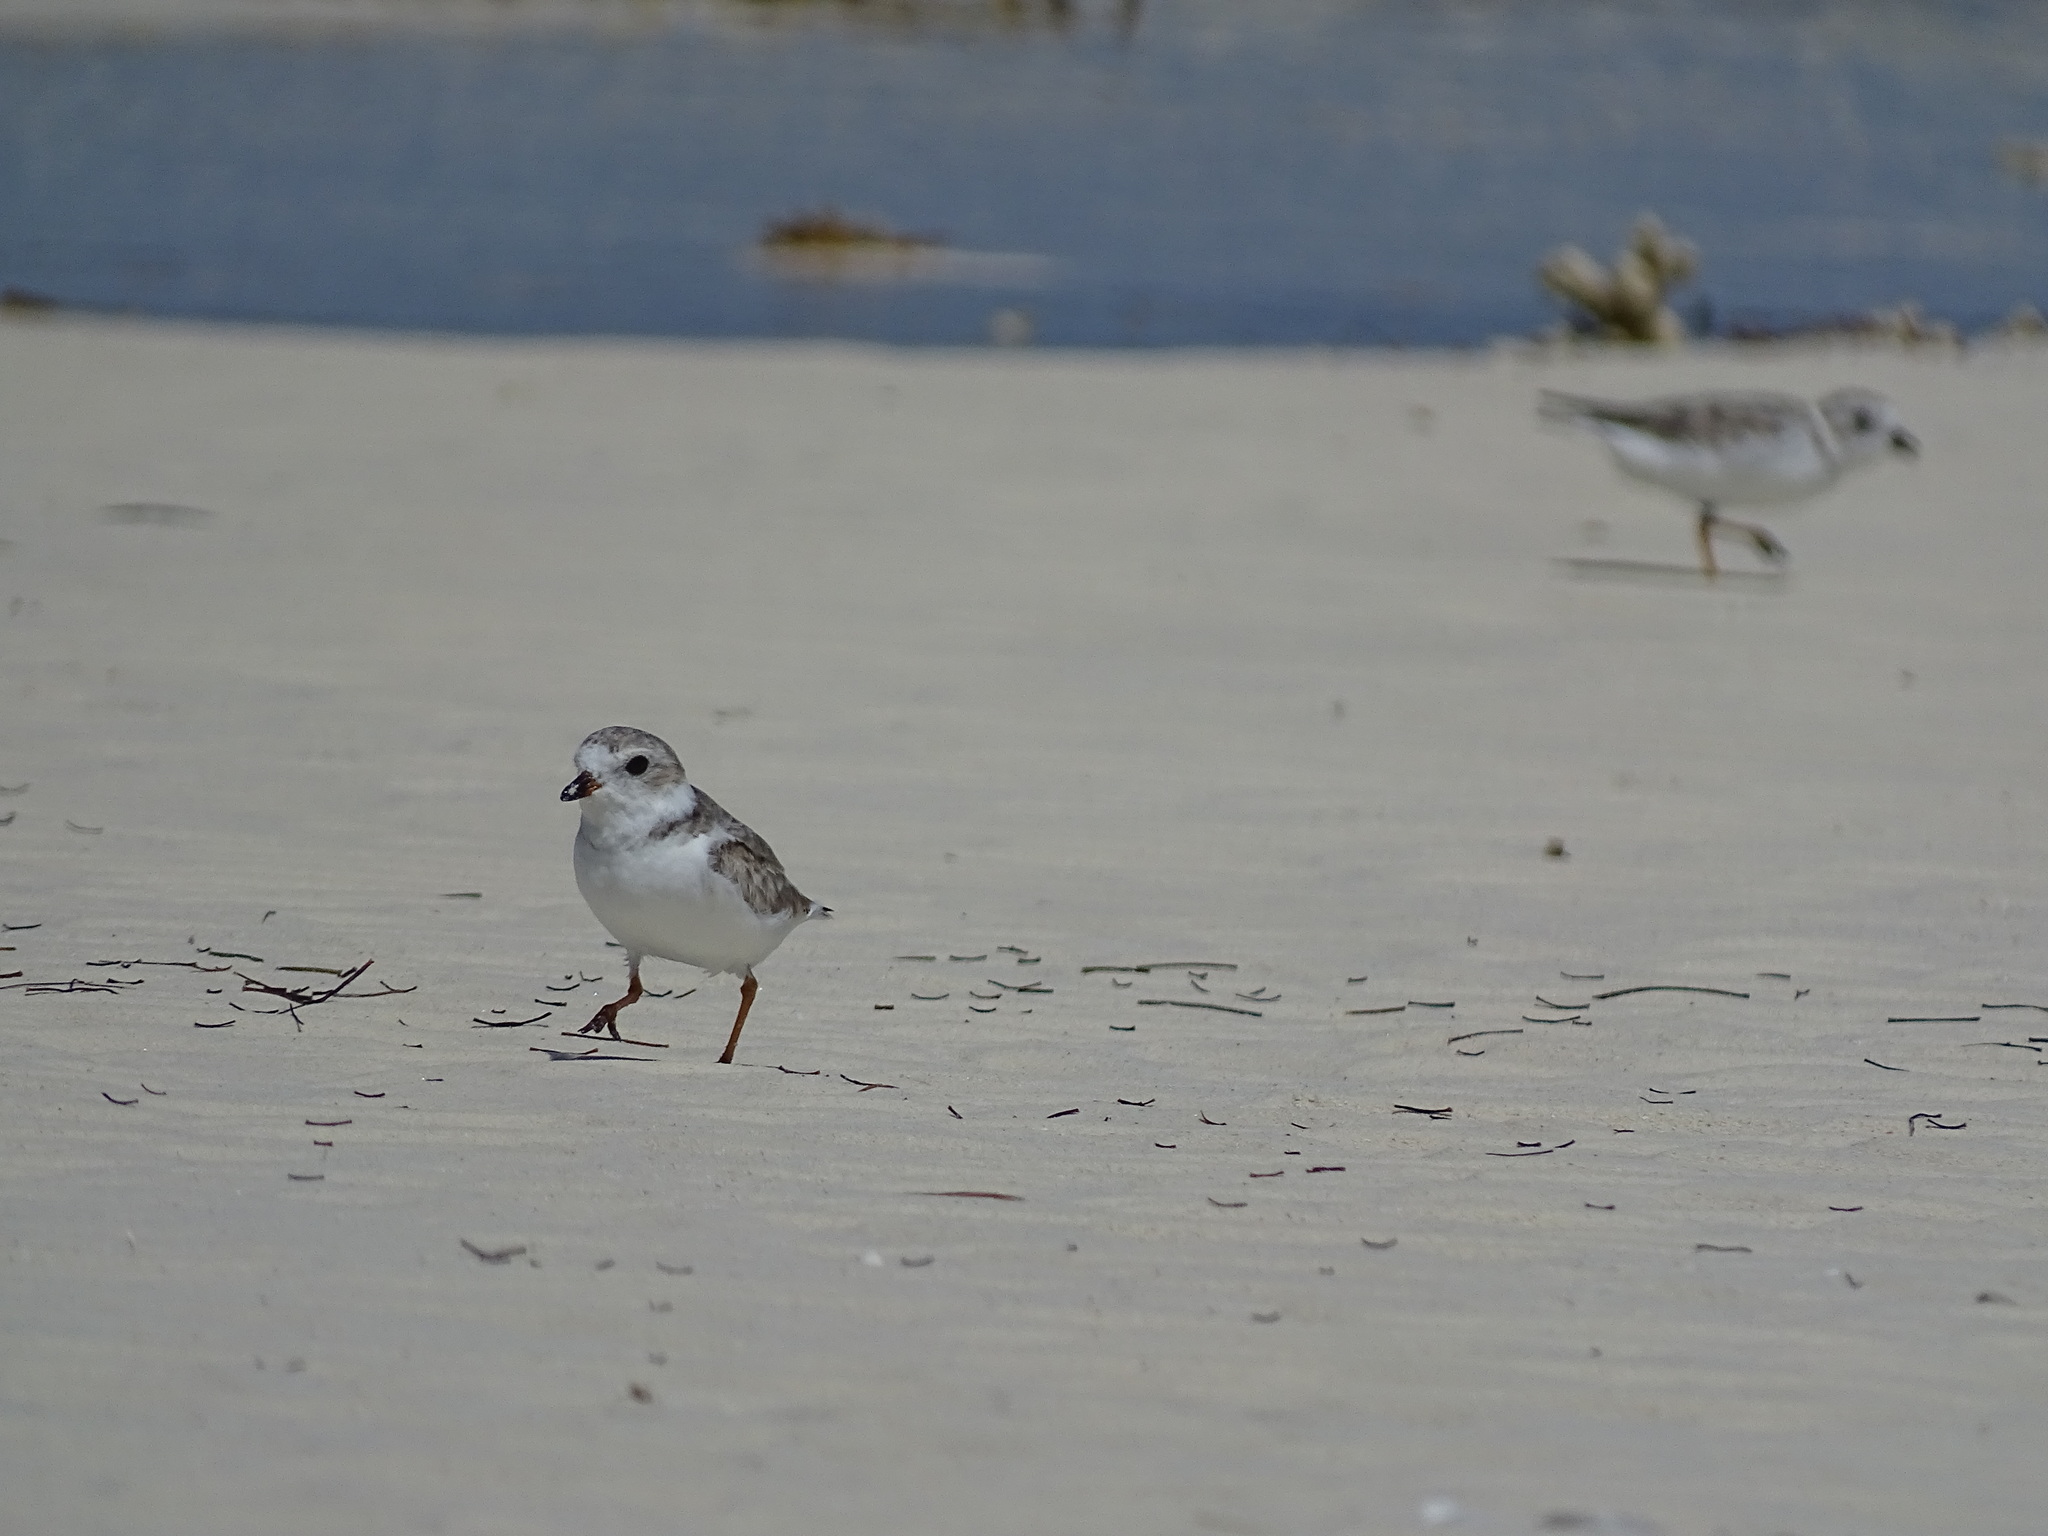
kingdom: Animalia
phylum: Chordata
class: Aves
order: Charadriiformes
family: Charadriidae
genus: Charadrius
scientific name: Charadrius melodus
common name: Piping plover
